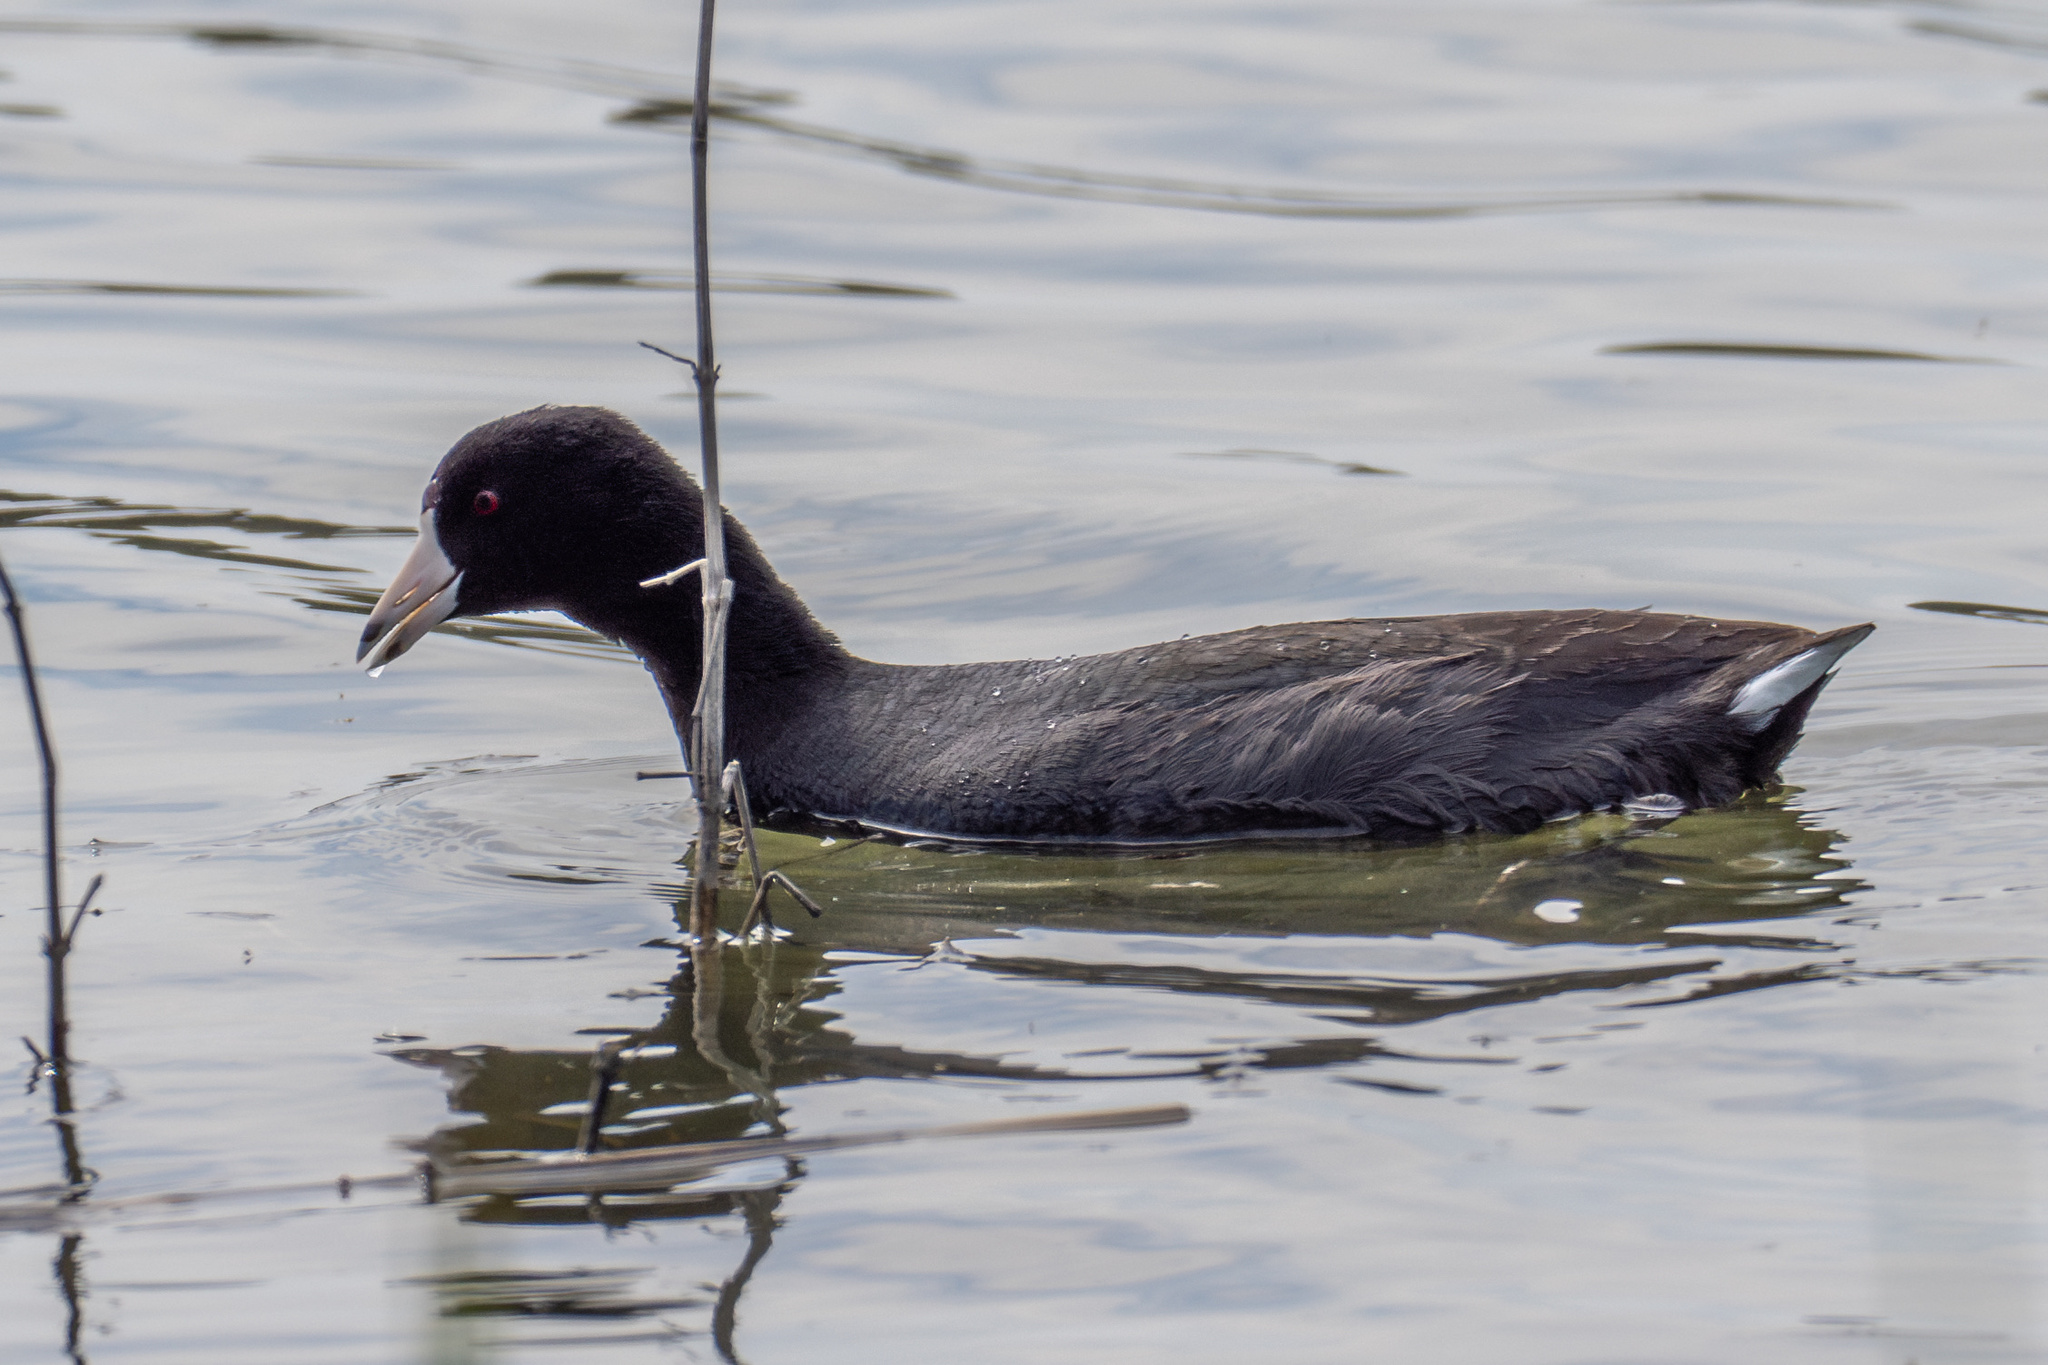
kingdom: Animalia
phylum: Chordata
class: Aves
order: Gruiformes
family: Rallidae
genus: Fulica
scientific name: Fulica americana
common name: American coot
